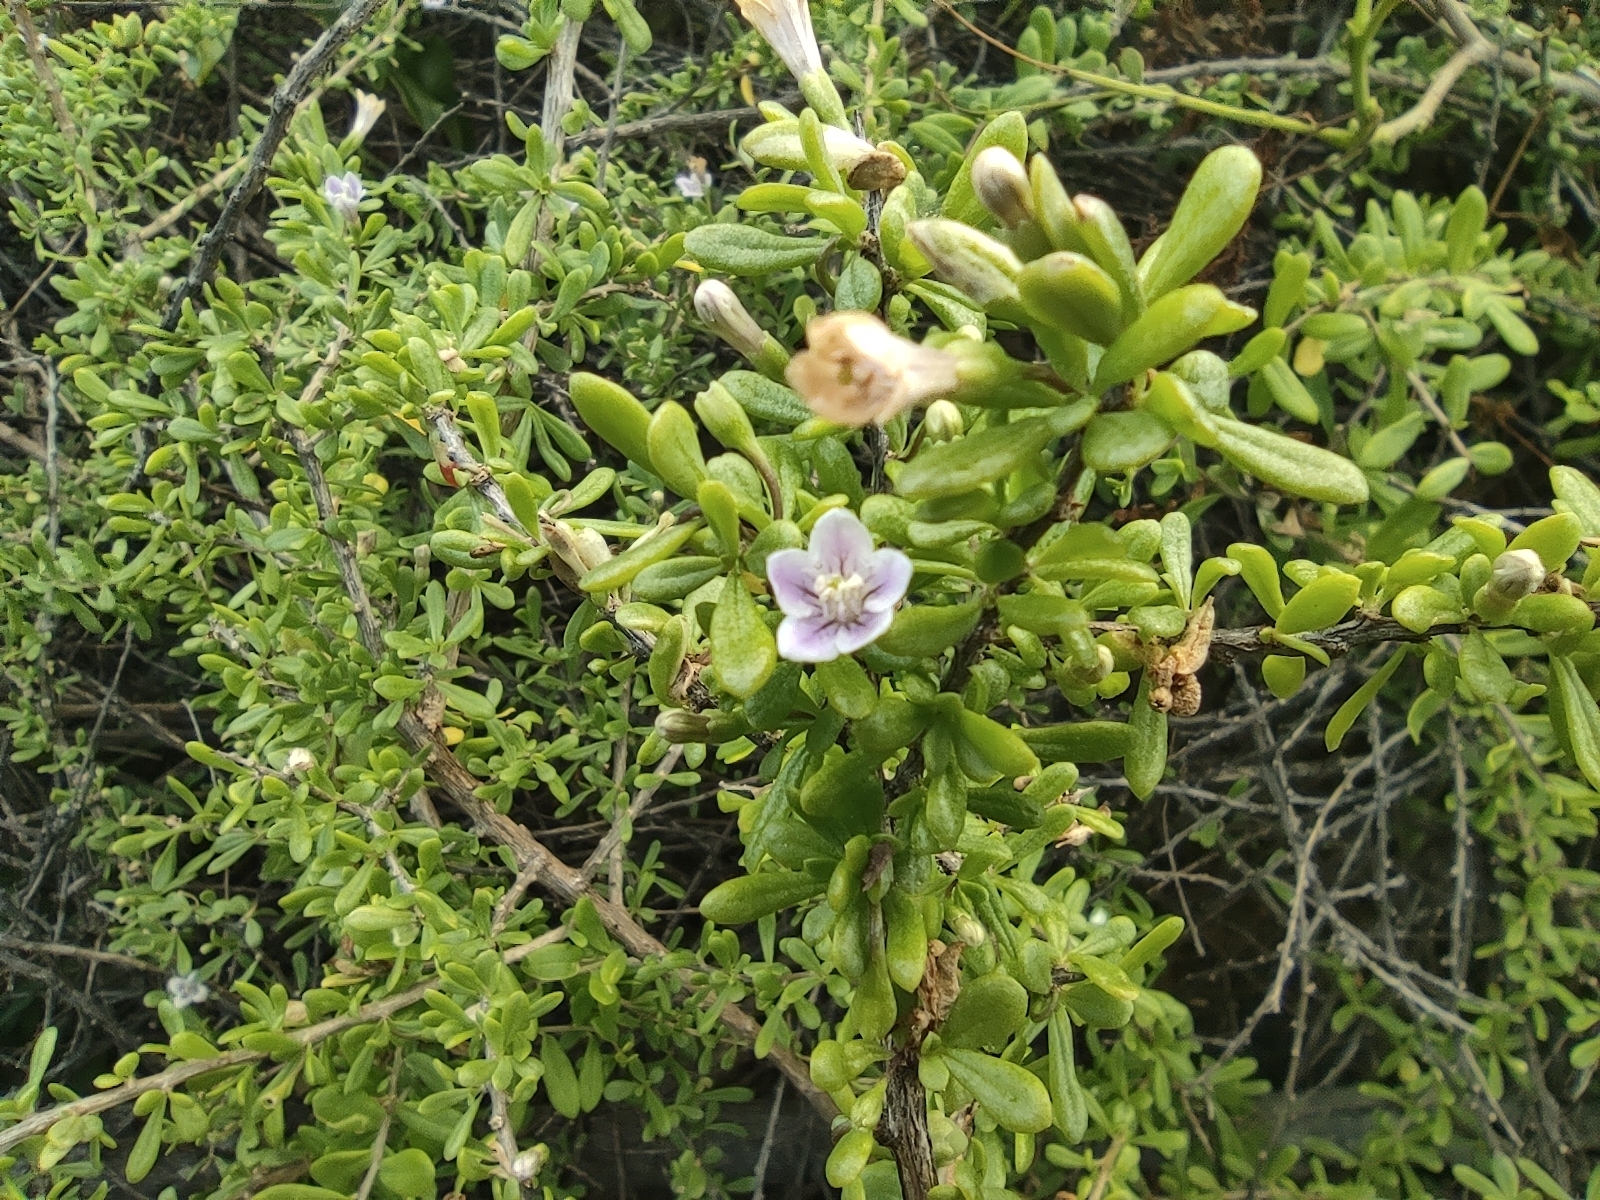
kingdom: Plantae
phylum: Tracheophyta
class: Magnoliopsida
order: Solanales
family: Solanaceae
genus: Lycium
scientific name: Lycium mascarenense
